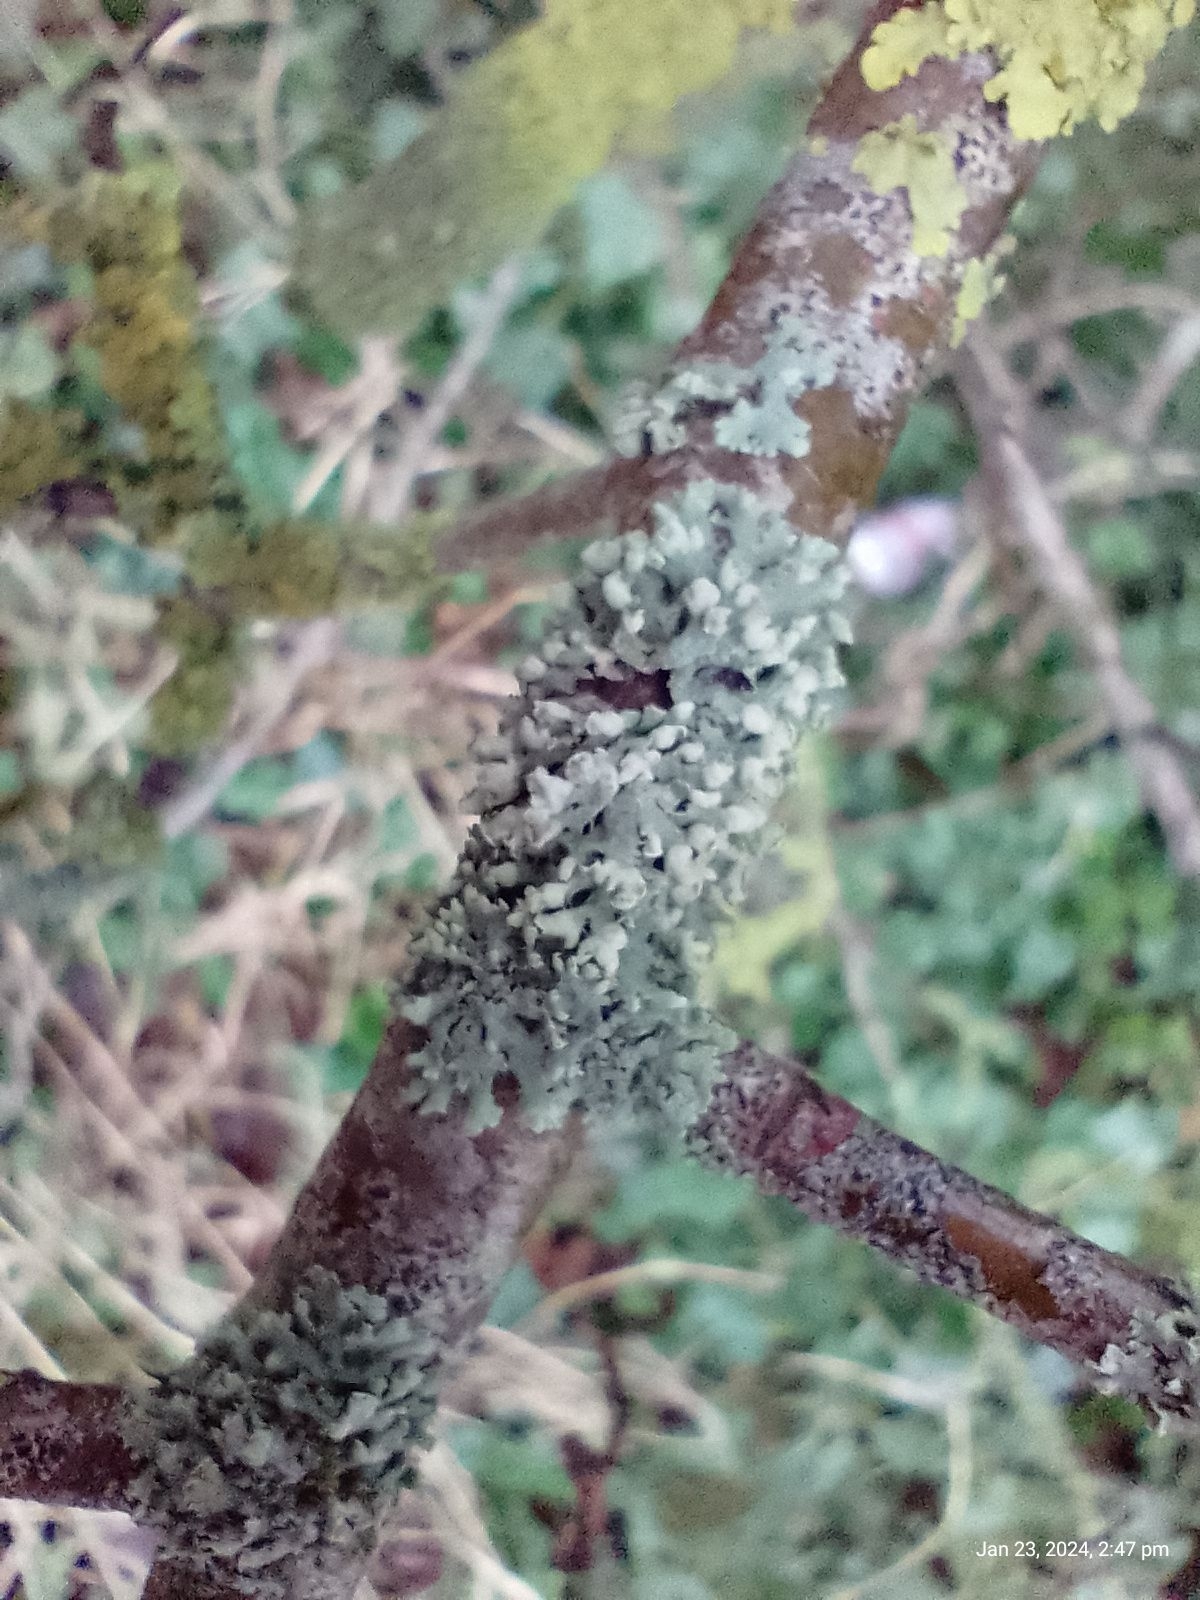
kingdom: Fungi
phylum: Ascomycota
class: Lecanoromycetes
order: Caliciales
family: Physciaceae
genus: Physcia
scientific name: Physcia adscendens
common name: Hooded rosette lichen
